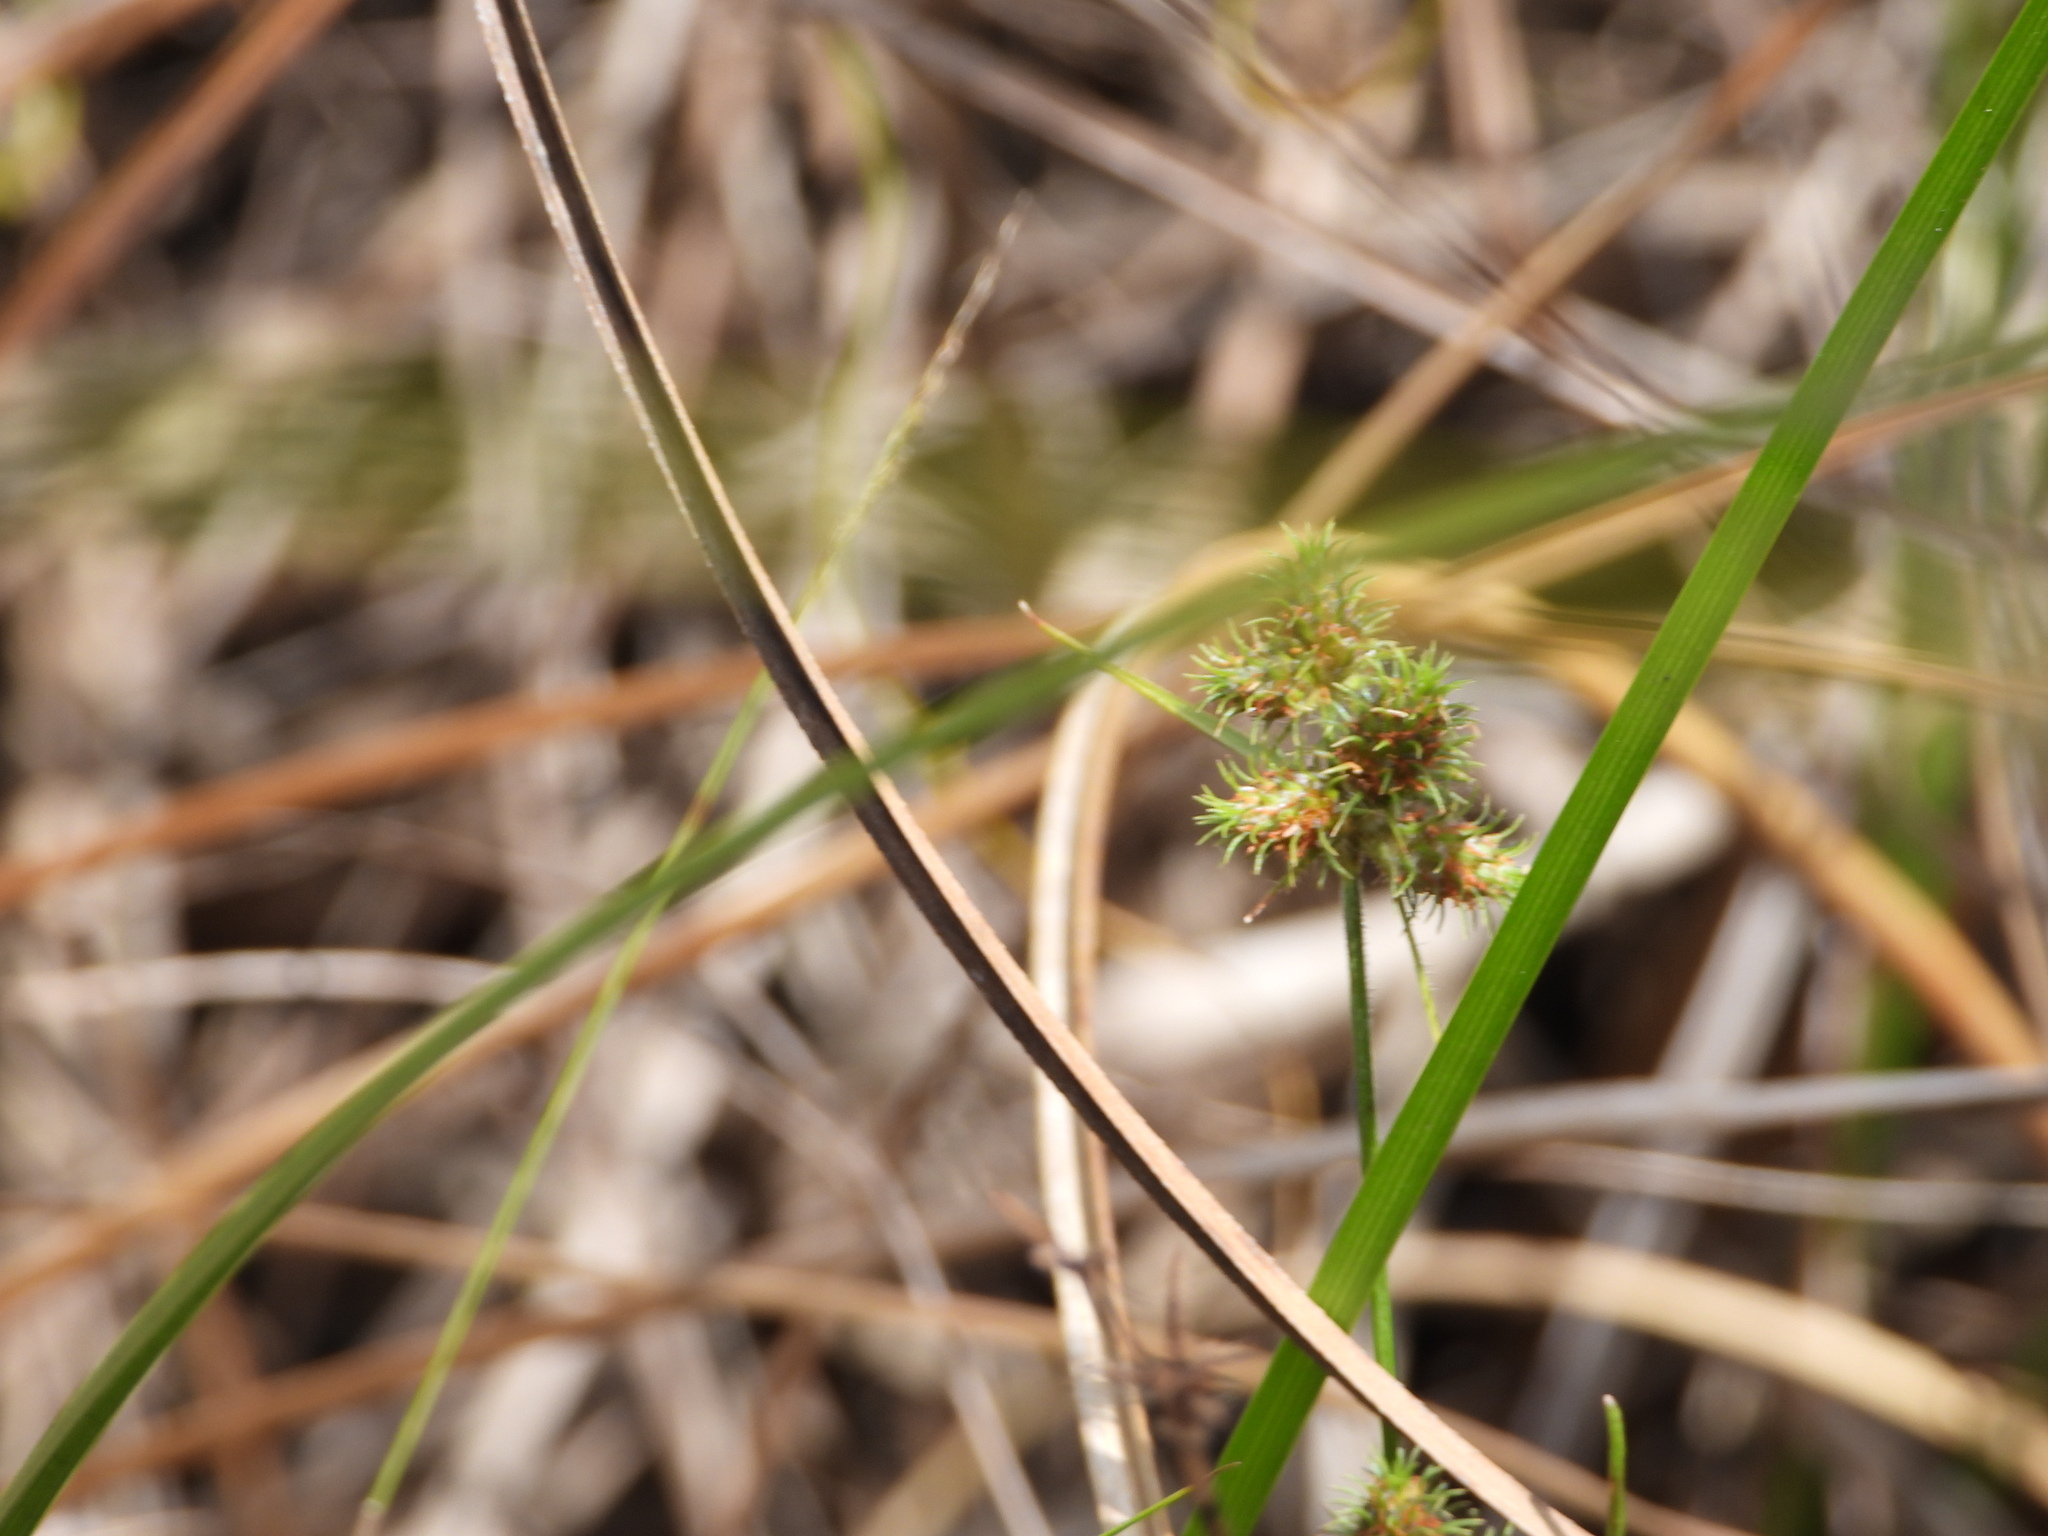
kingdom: Plantae
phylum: Tracheophyta
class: Liliopsida
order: Poales
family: Cyperaceae
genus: Fuirena
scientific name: Fuirena breviseta
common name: Saltmarsh umbrella sedge
